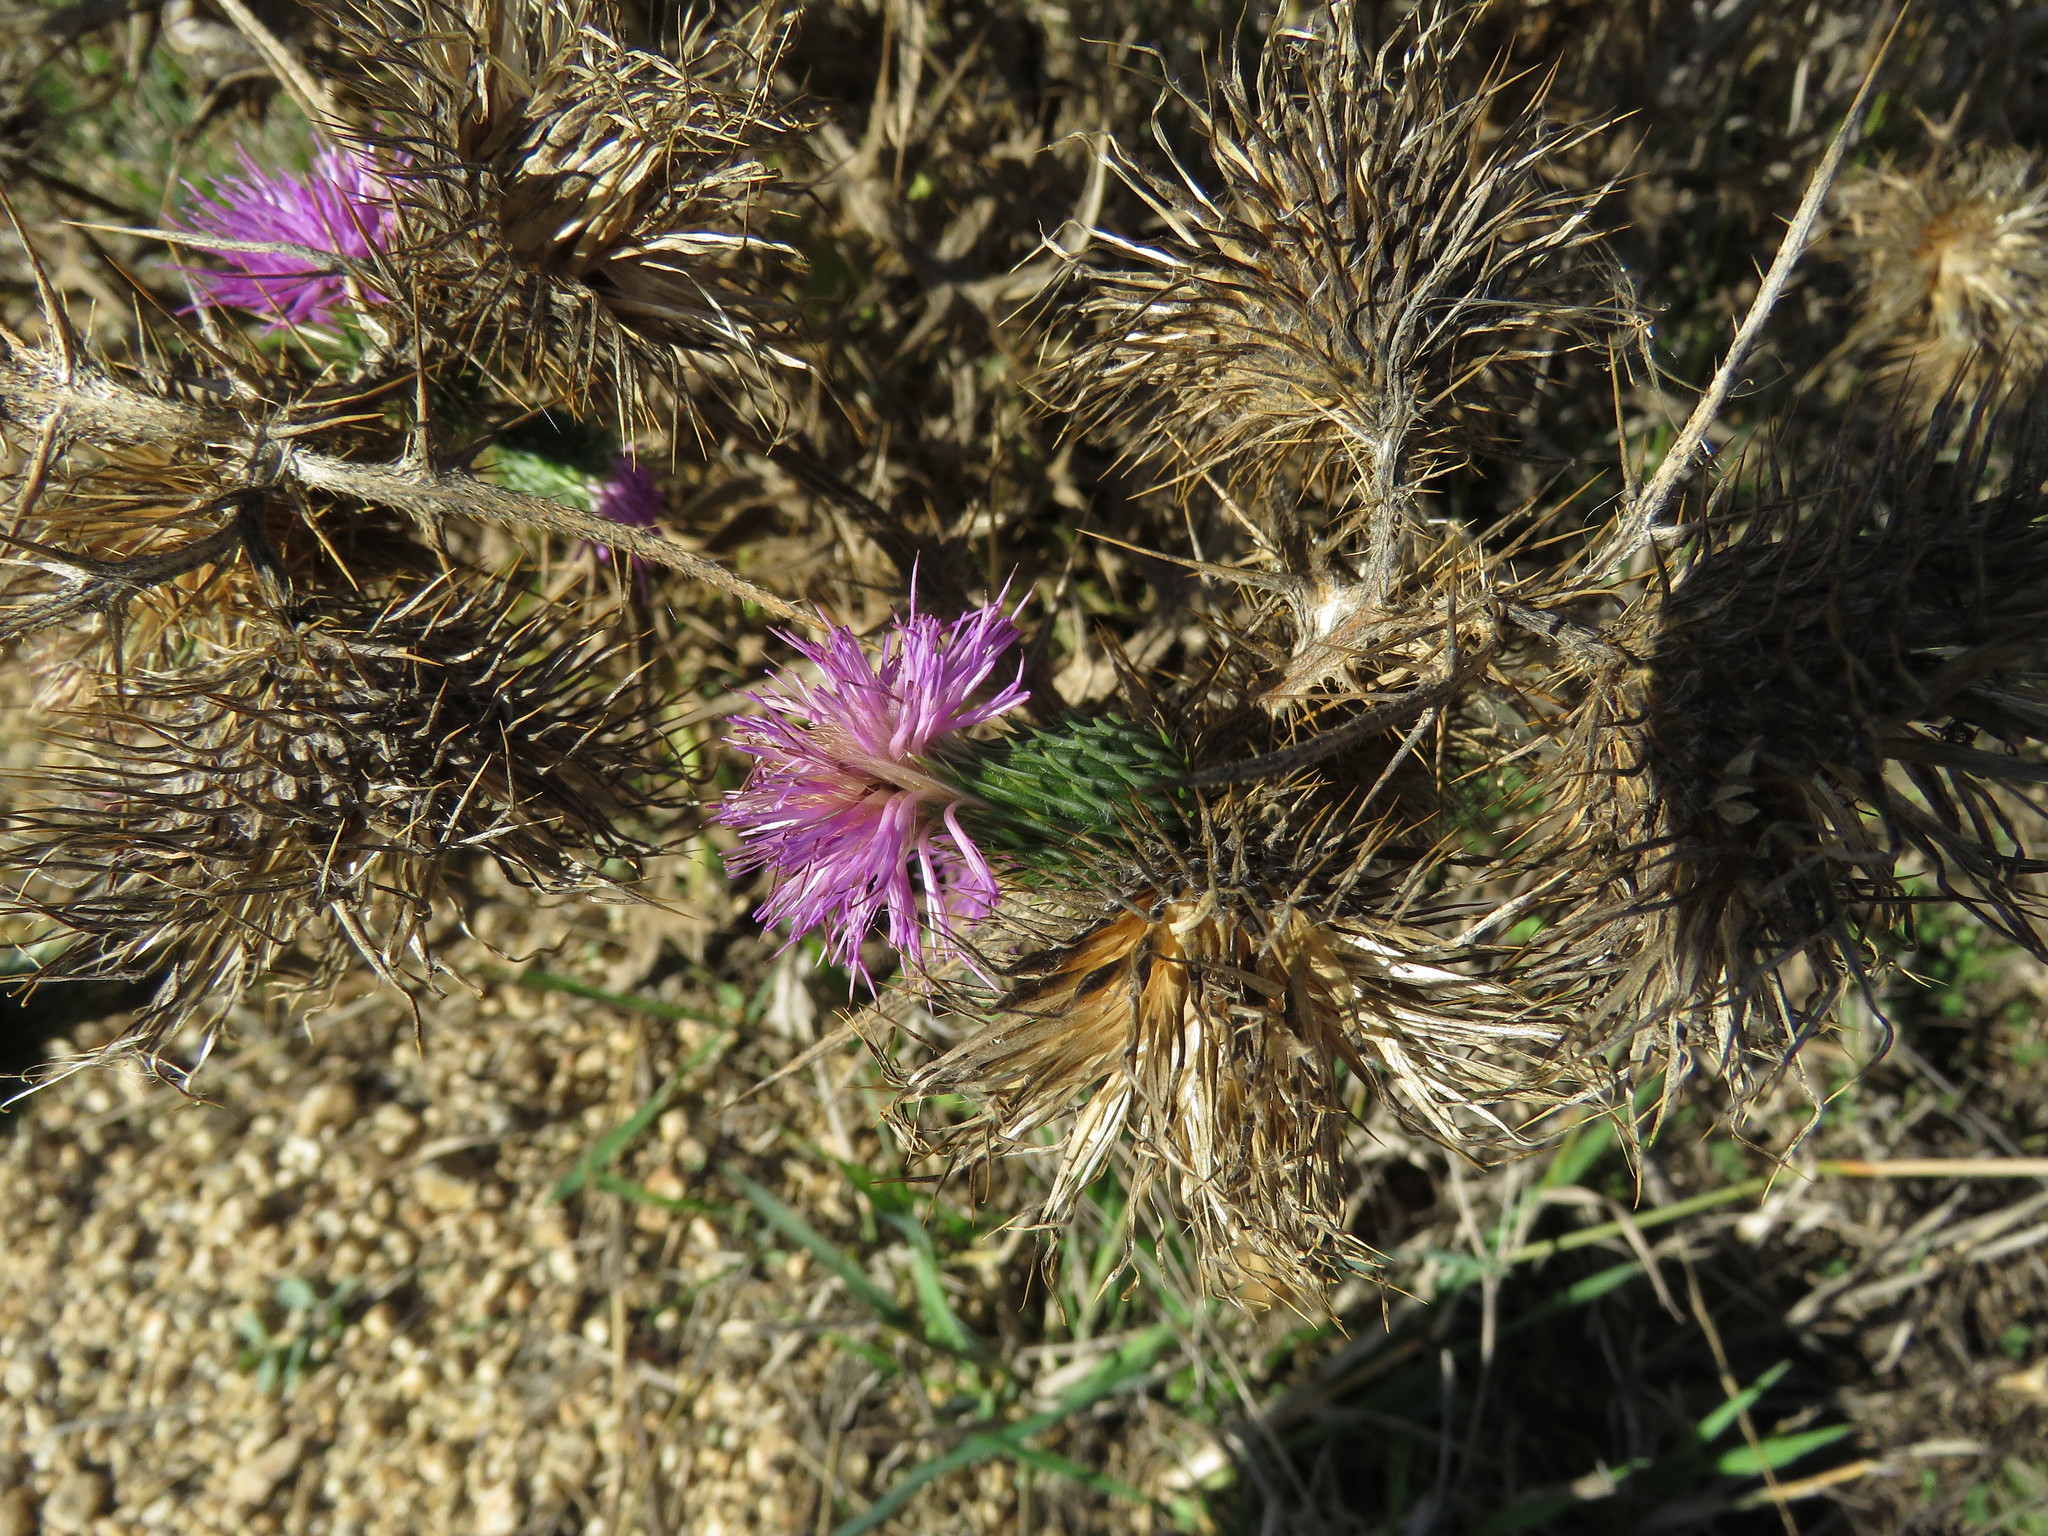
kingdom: Plantae
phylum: Tracheophyta
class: Magnoliopsida
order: Asterales
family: Asteraceae
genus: Cirsium
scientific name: Cirsium vulgare
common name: Bull thistle
